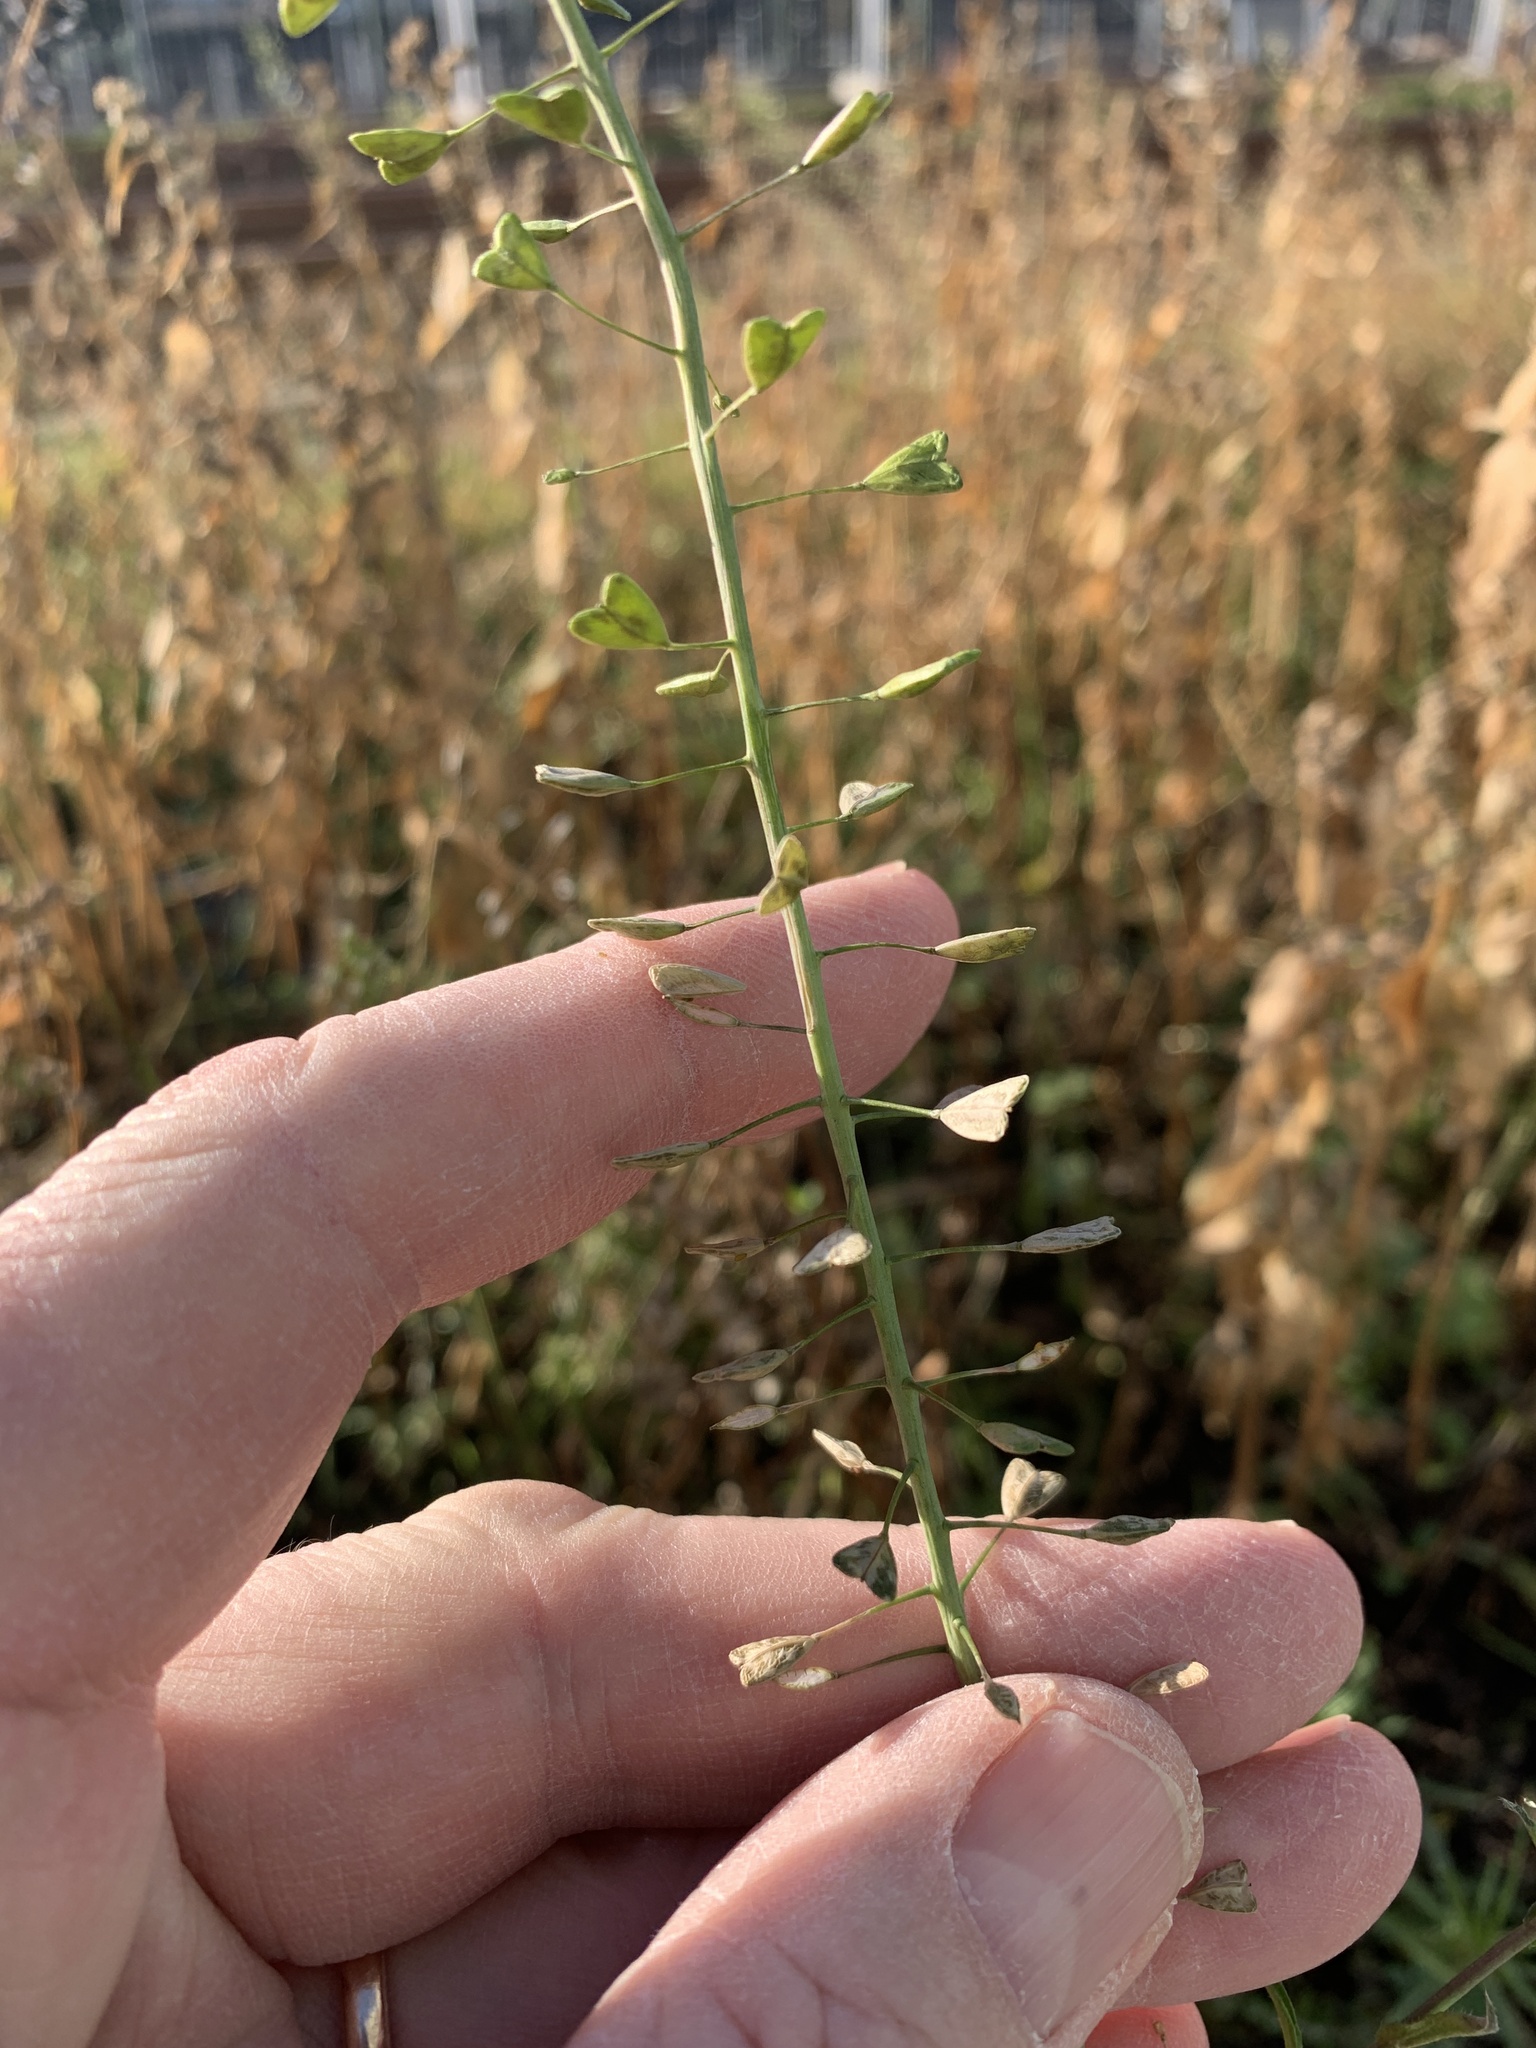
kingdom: Plantae
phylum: Tracheophyta
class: Magnoliopsida
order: Brassicales
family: Brassicaceae
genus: Capsella
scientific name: Capsella bursa-pastoris
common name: Shepherd's purse
